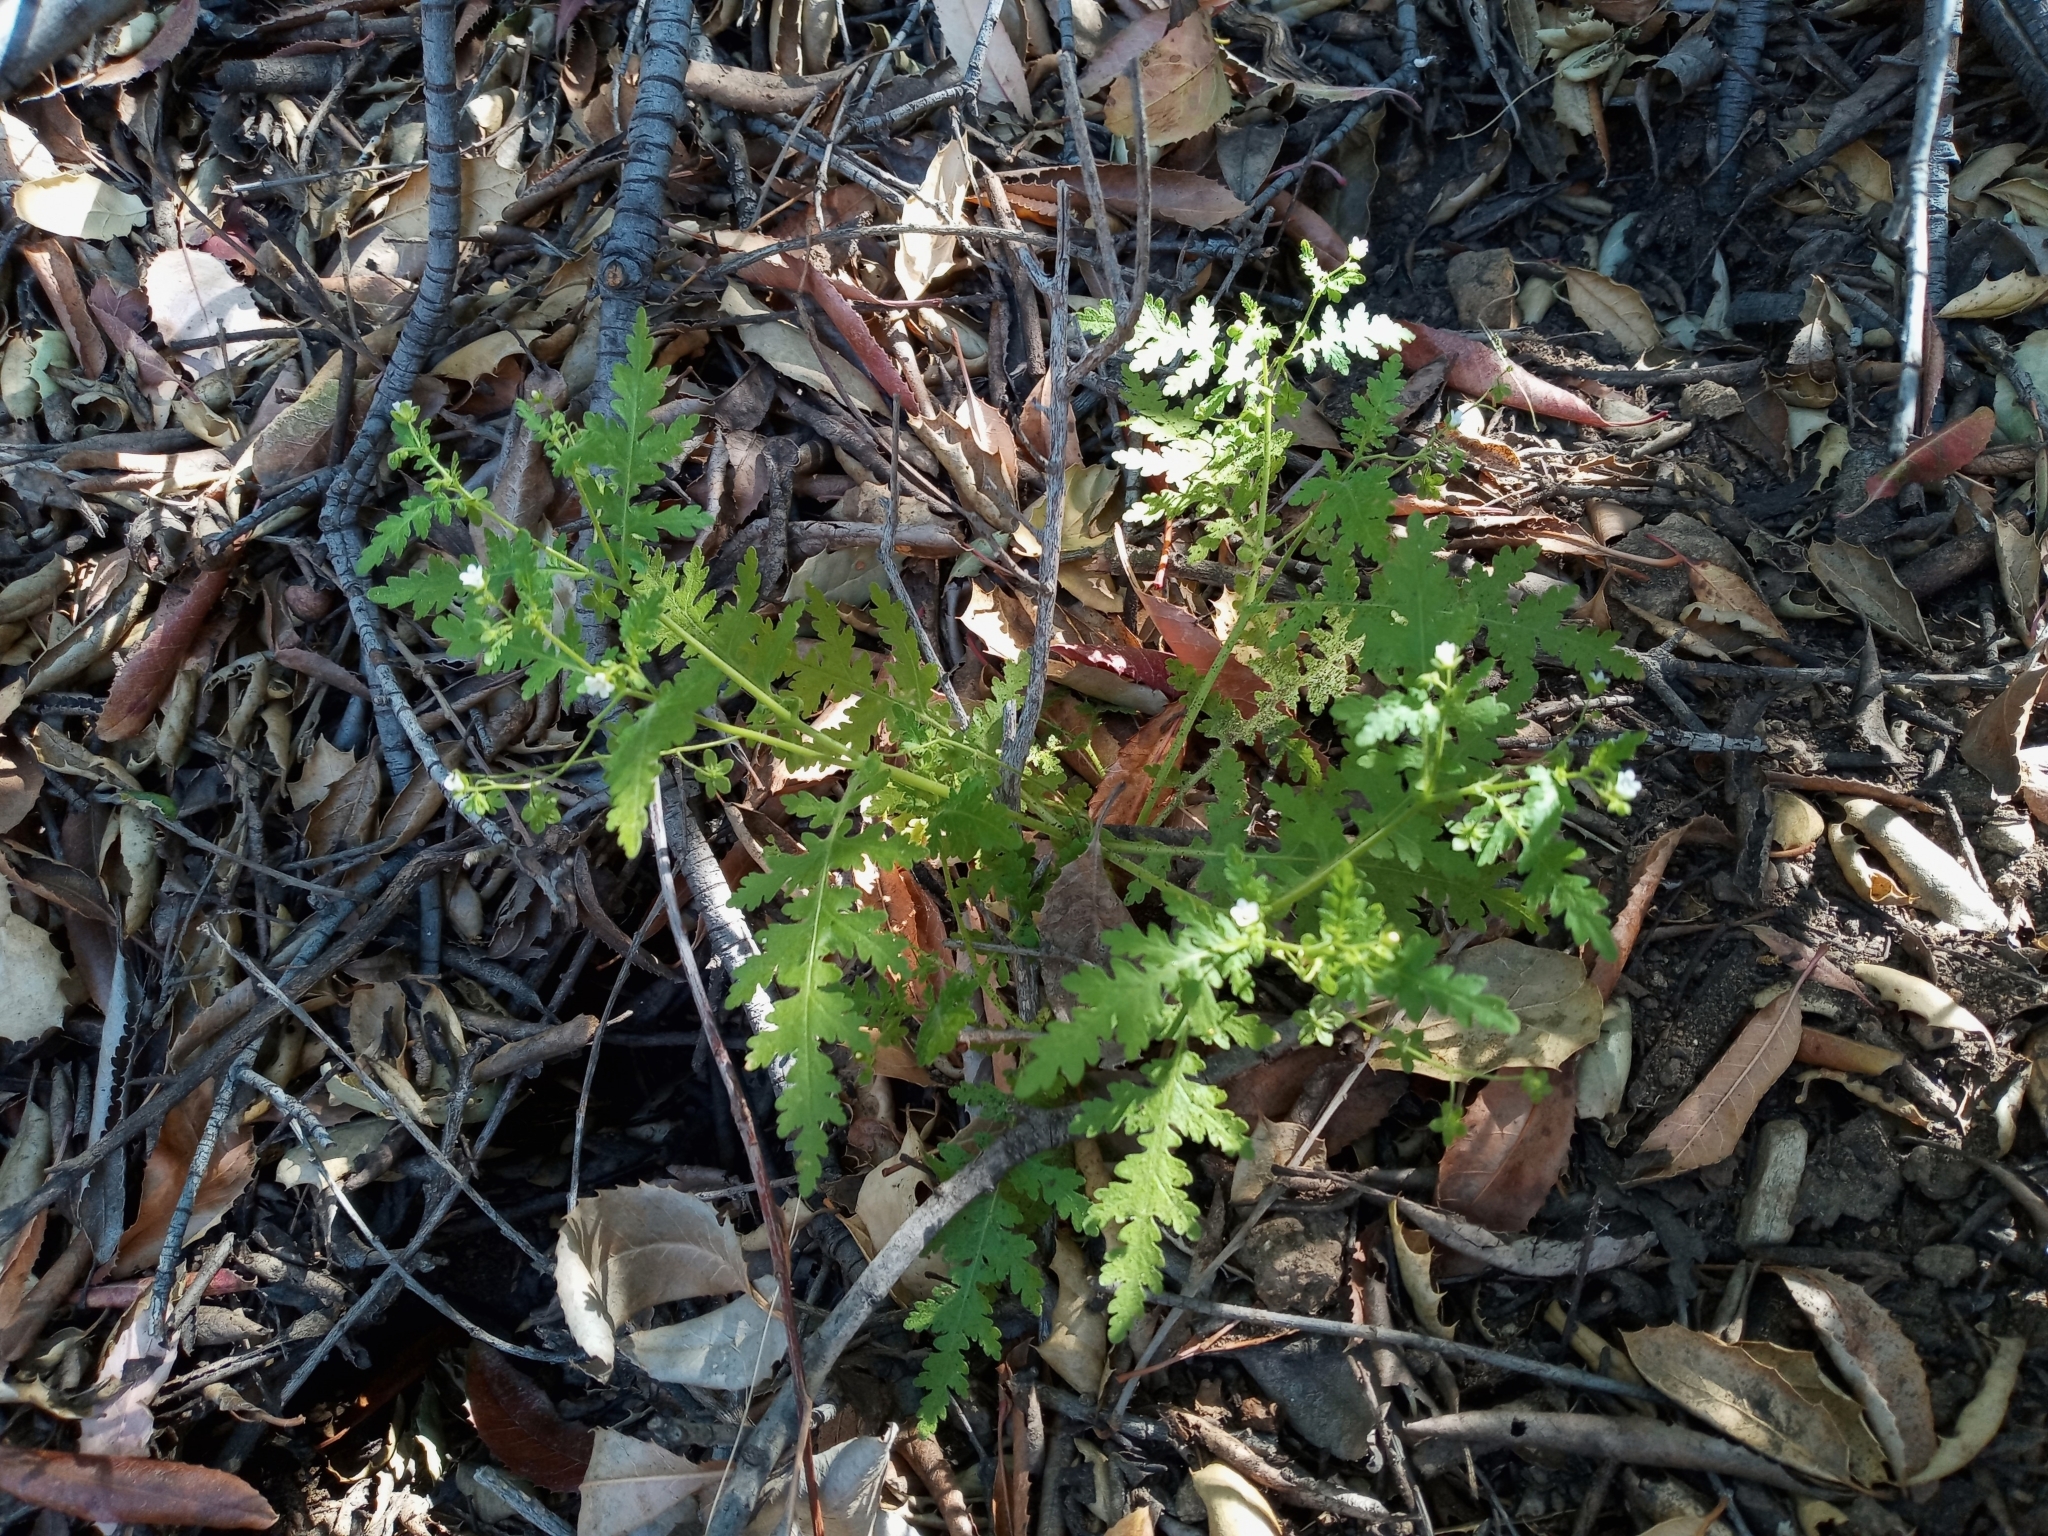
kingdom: Plantae
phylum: Tracheophyta
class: Magnoliopsida
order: Boraginales
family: Hydrophyllaceae
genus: Eucrypta
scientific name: Eucrypta chrysanthemifolia
